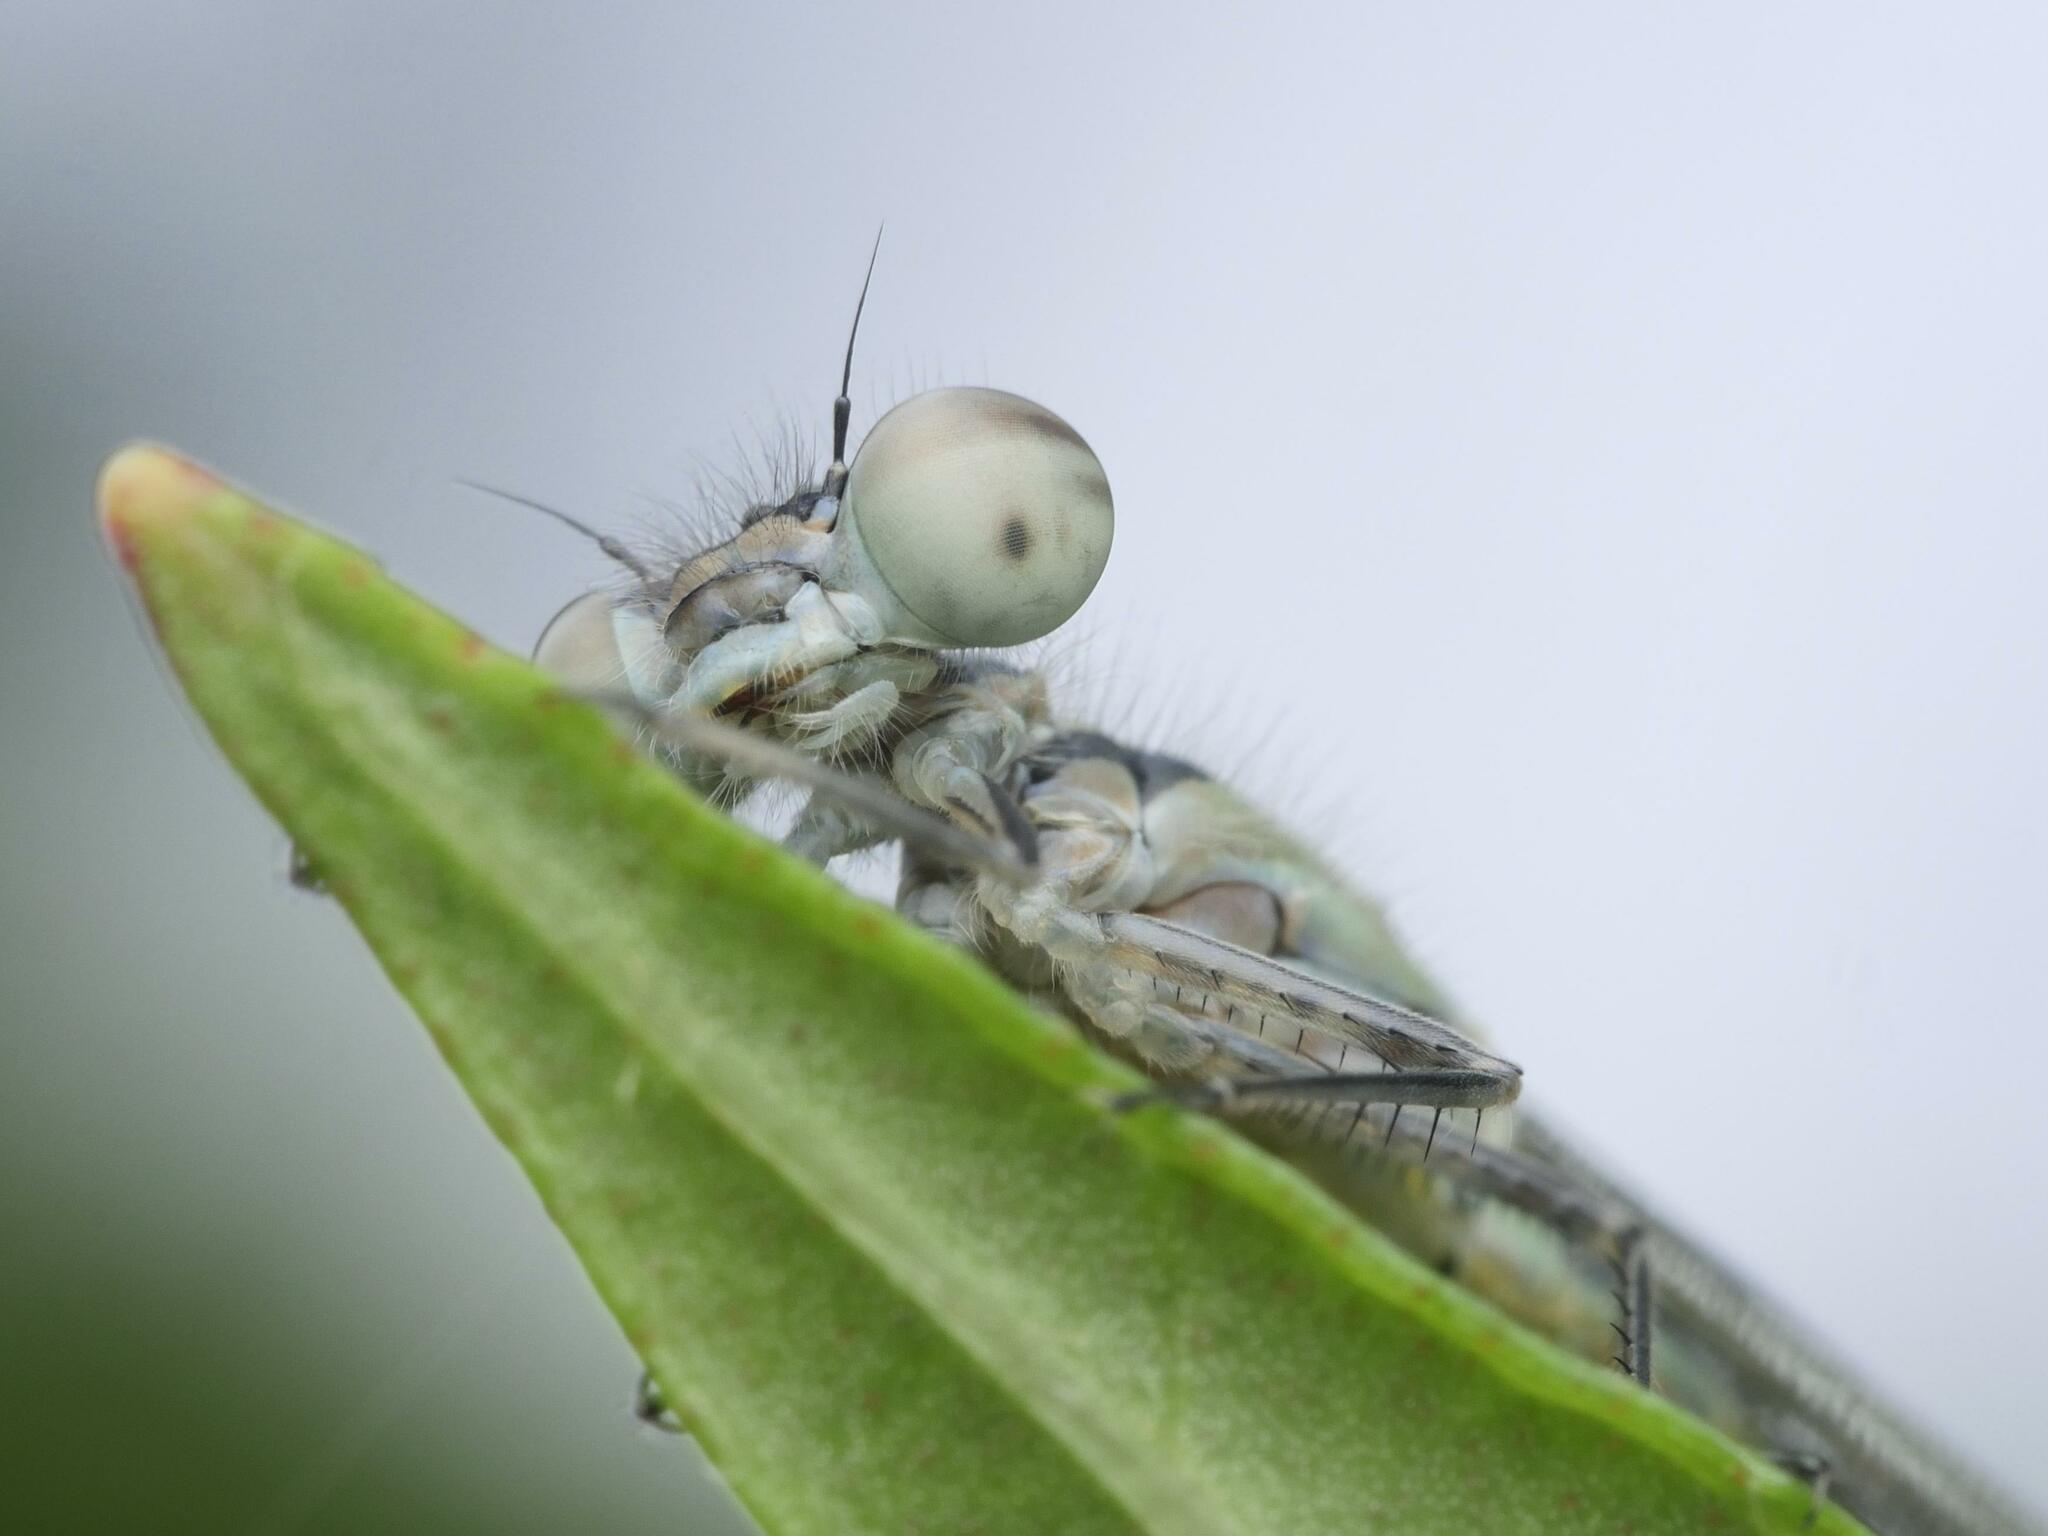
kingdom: Animalia
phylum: Arthropoda
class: Insecta
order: Odonata
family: Coenagrionidae
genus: Ischnura
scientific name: Ischnura elegans
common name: Blue-tailed damselfly
